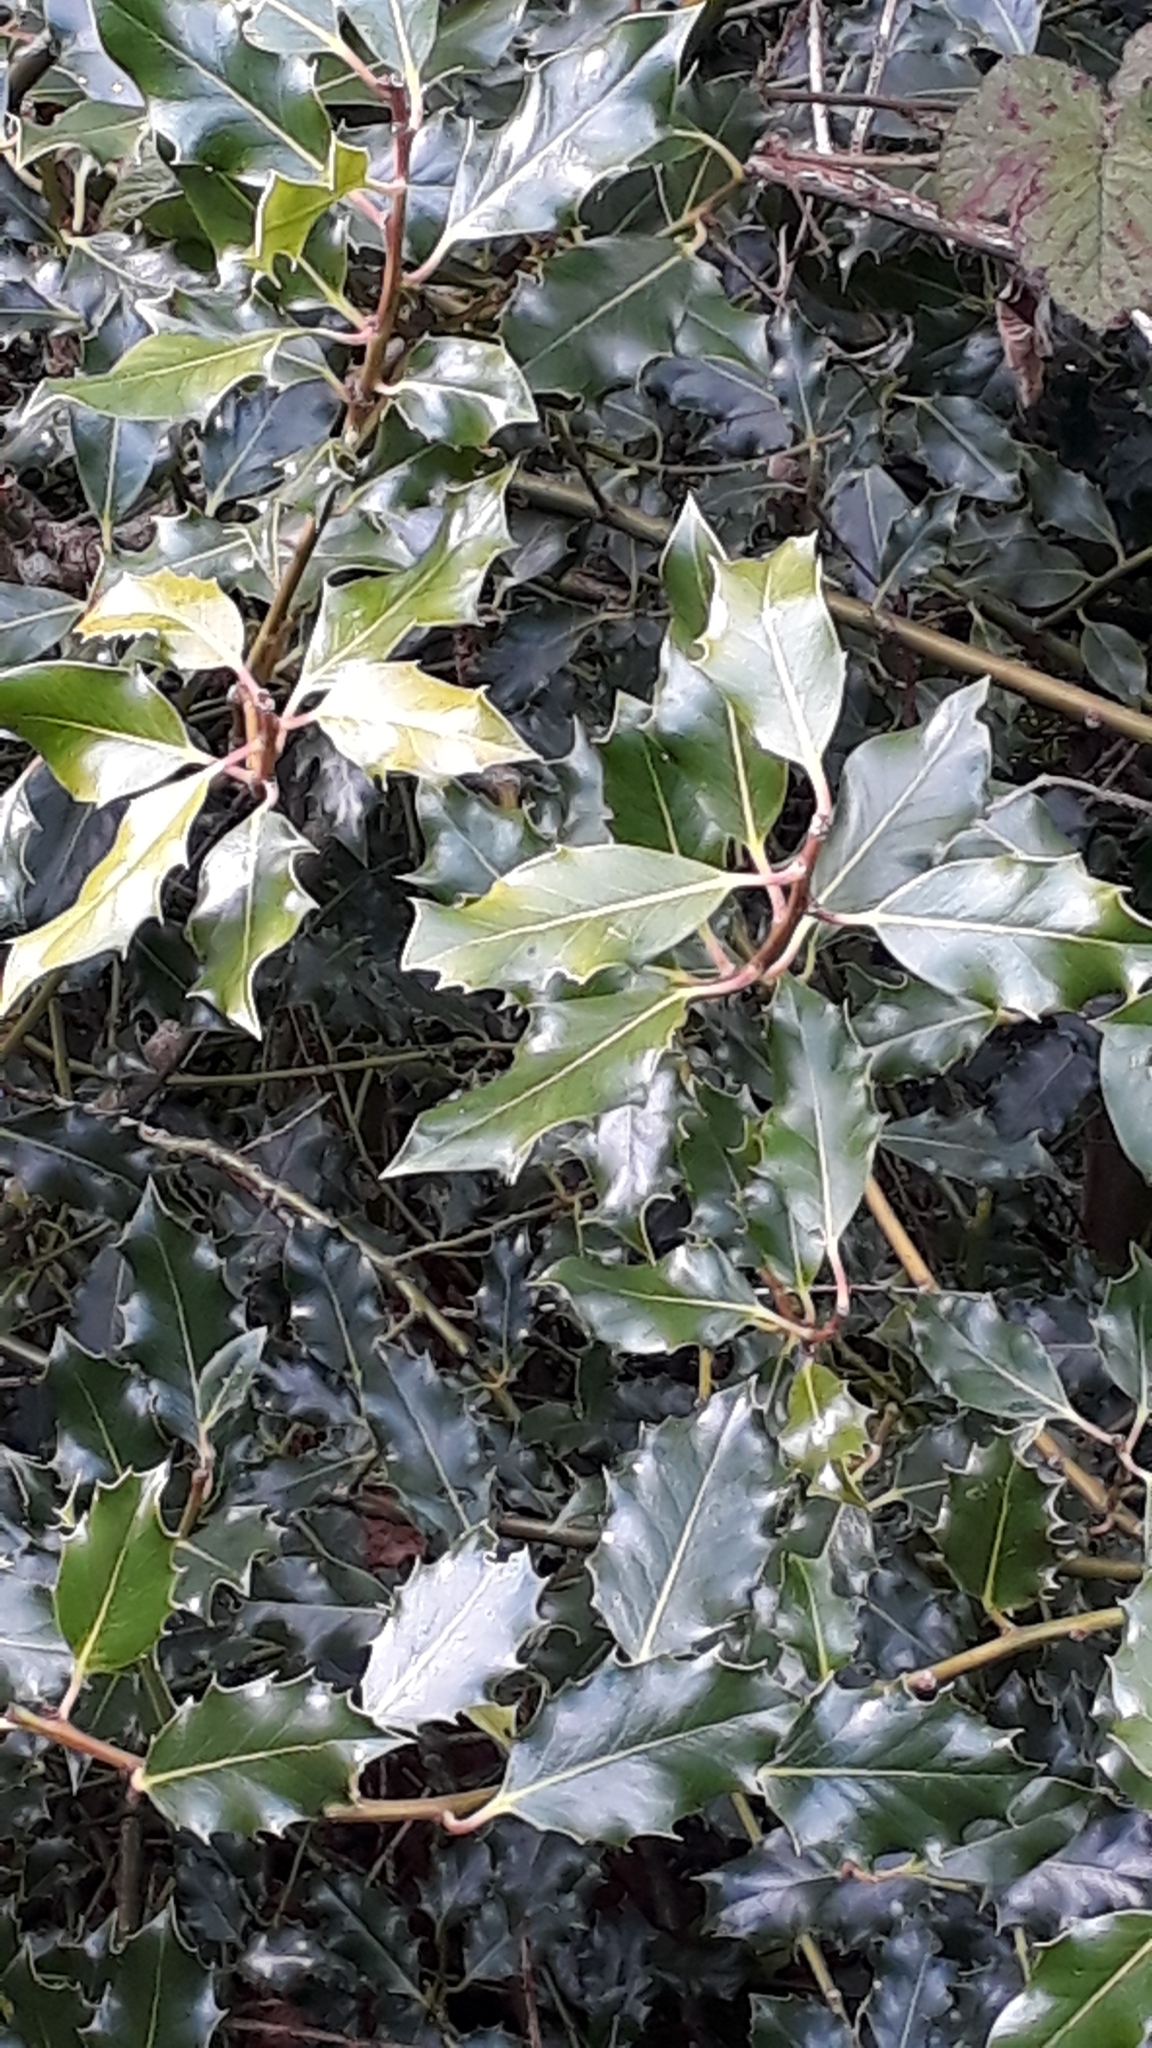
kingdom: Plantae
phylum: Tracheophyta
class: Magnoliopsida
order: Aquifoliales
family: Aquifoliaceae
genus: Ilex
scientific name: Ilex aquifolium
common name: English holly
